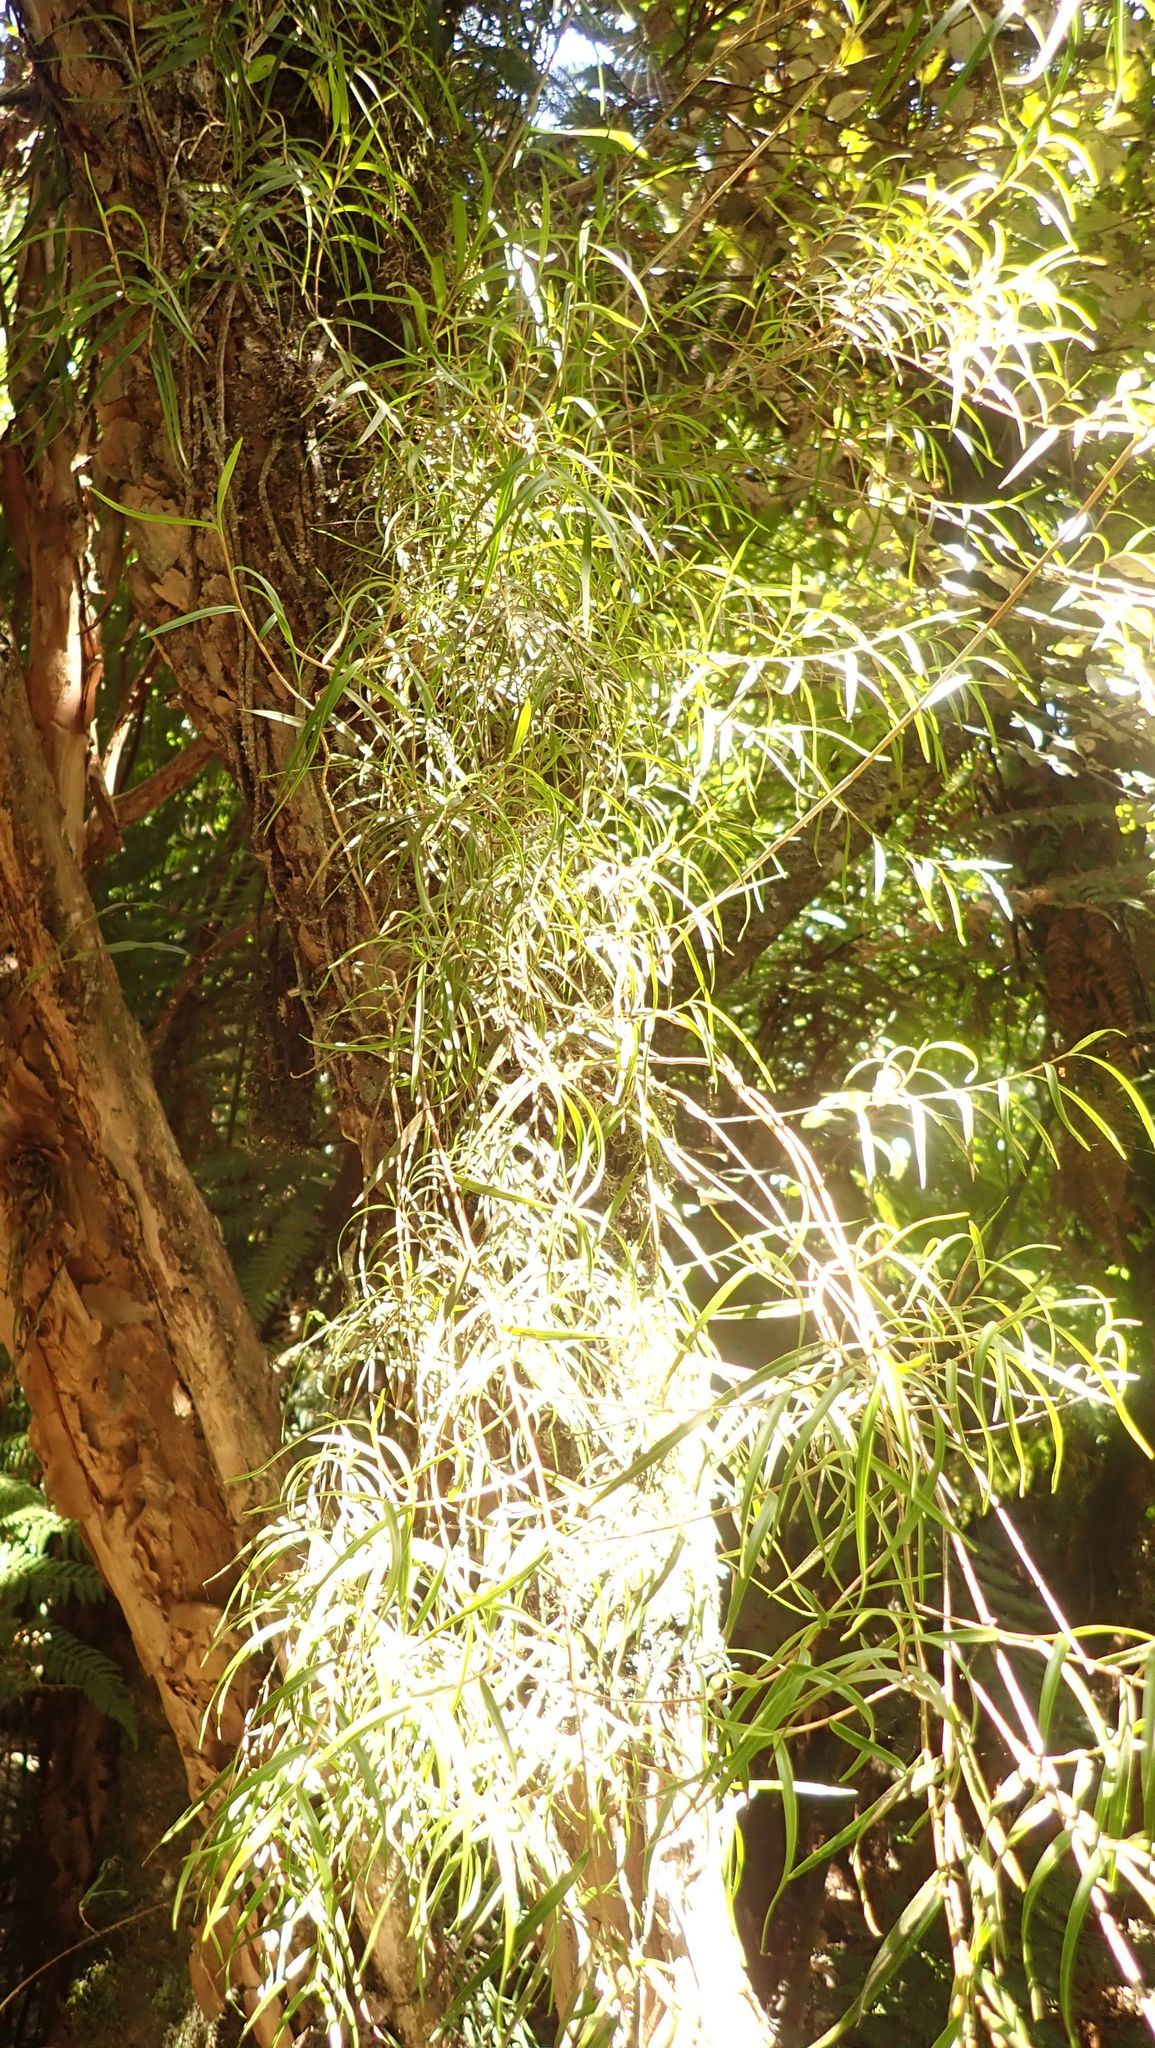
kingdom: Plantae
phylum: Tracheophyta
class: Liliopsida
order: Asparagales
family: Orchidaceae
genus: Dendrobium
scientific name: Dendrobium cunninghamii
